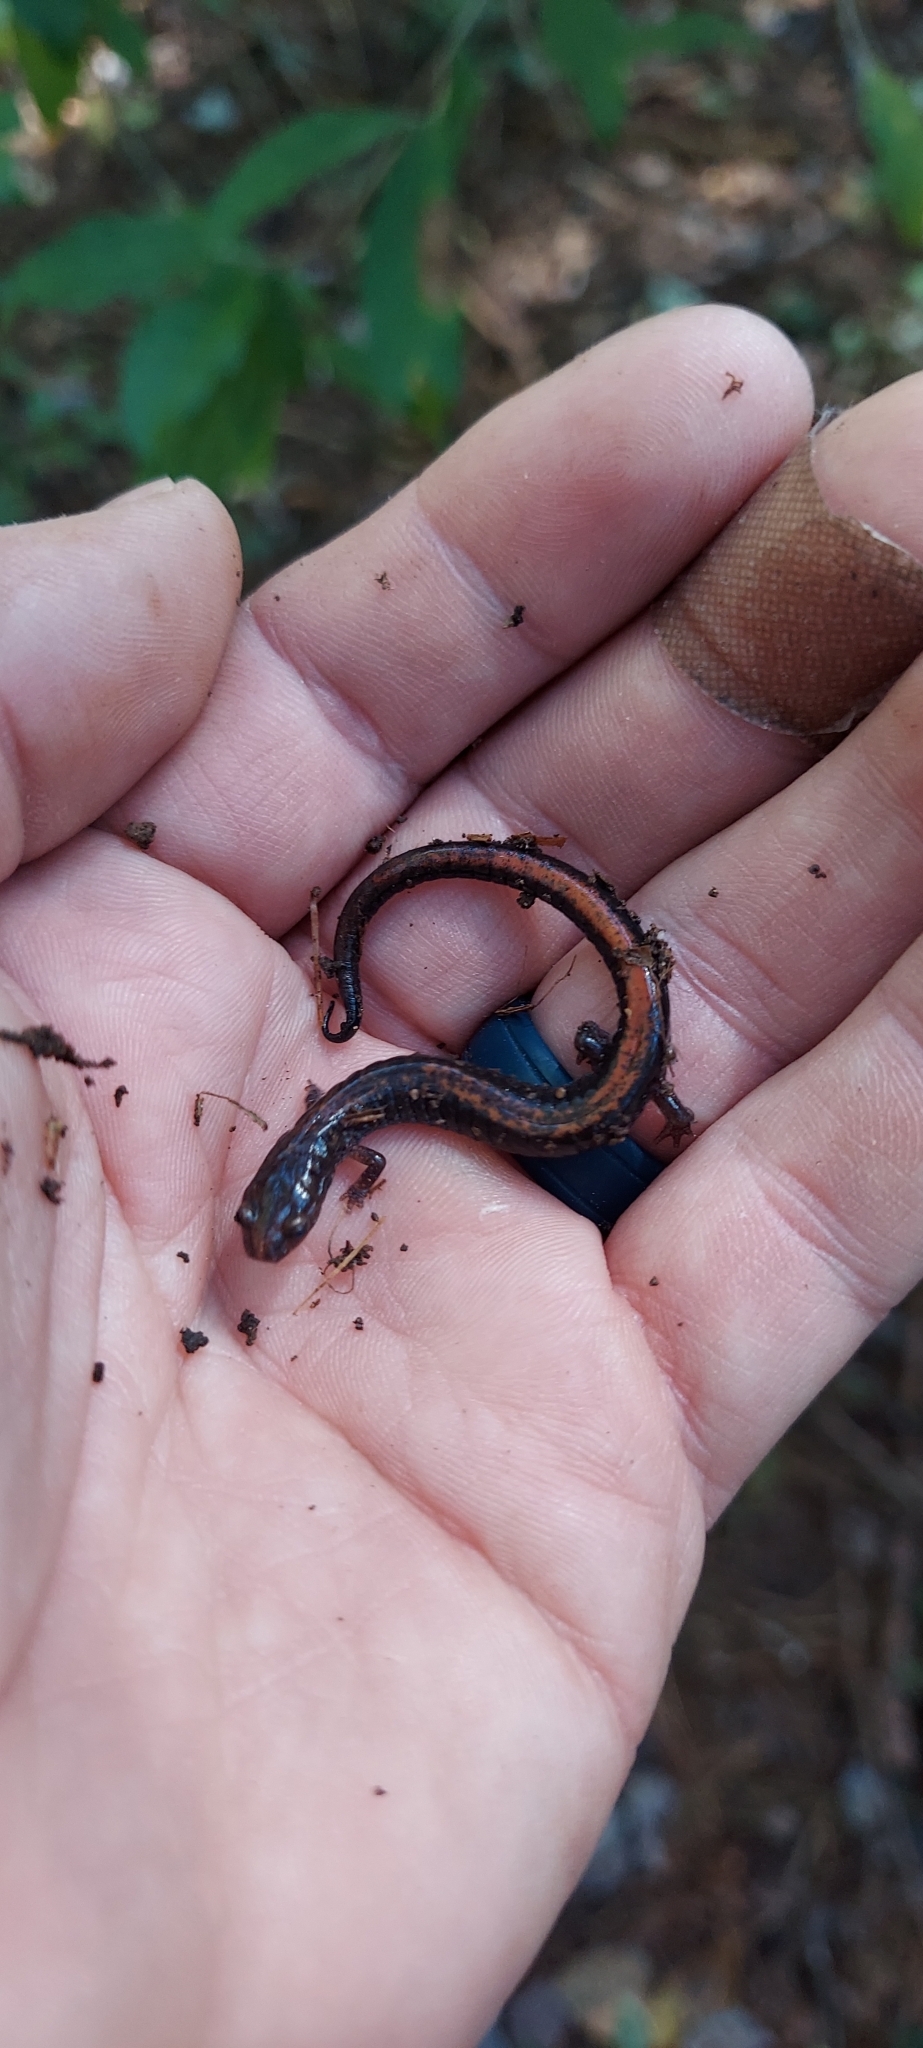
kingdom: Animalia
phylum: Chordata
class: Amphibia
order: Caudata
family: Plethodontidae
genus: Plethodon
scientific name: Plethodon cinereus
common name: Redback salamander
